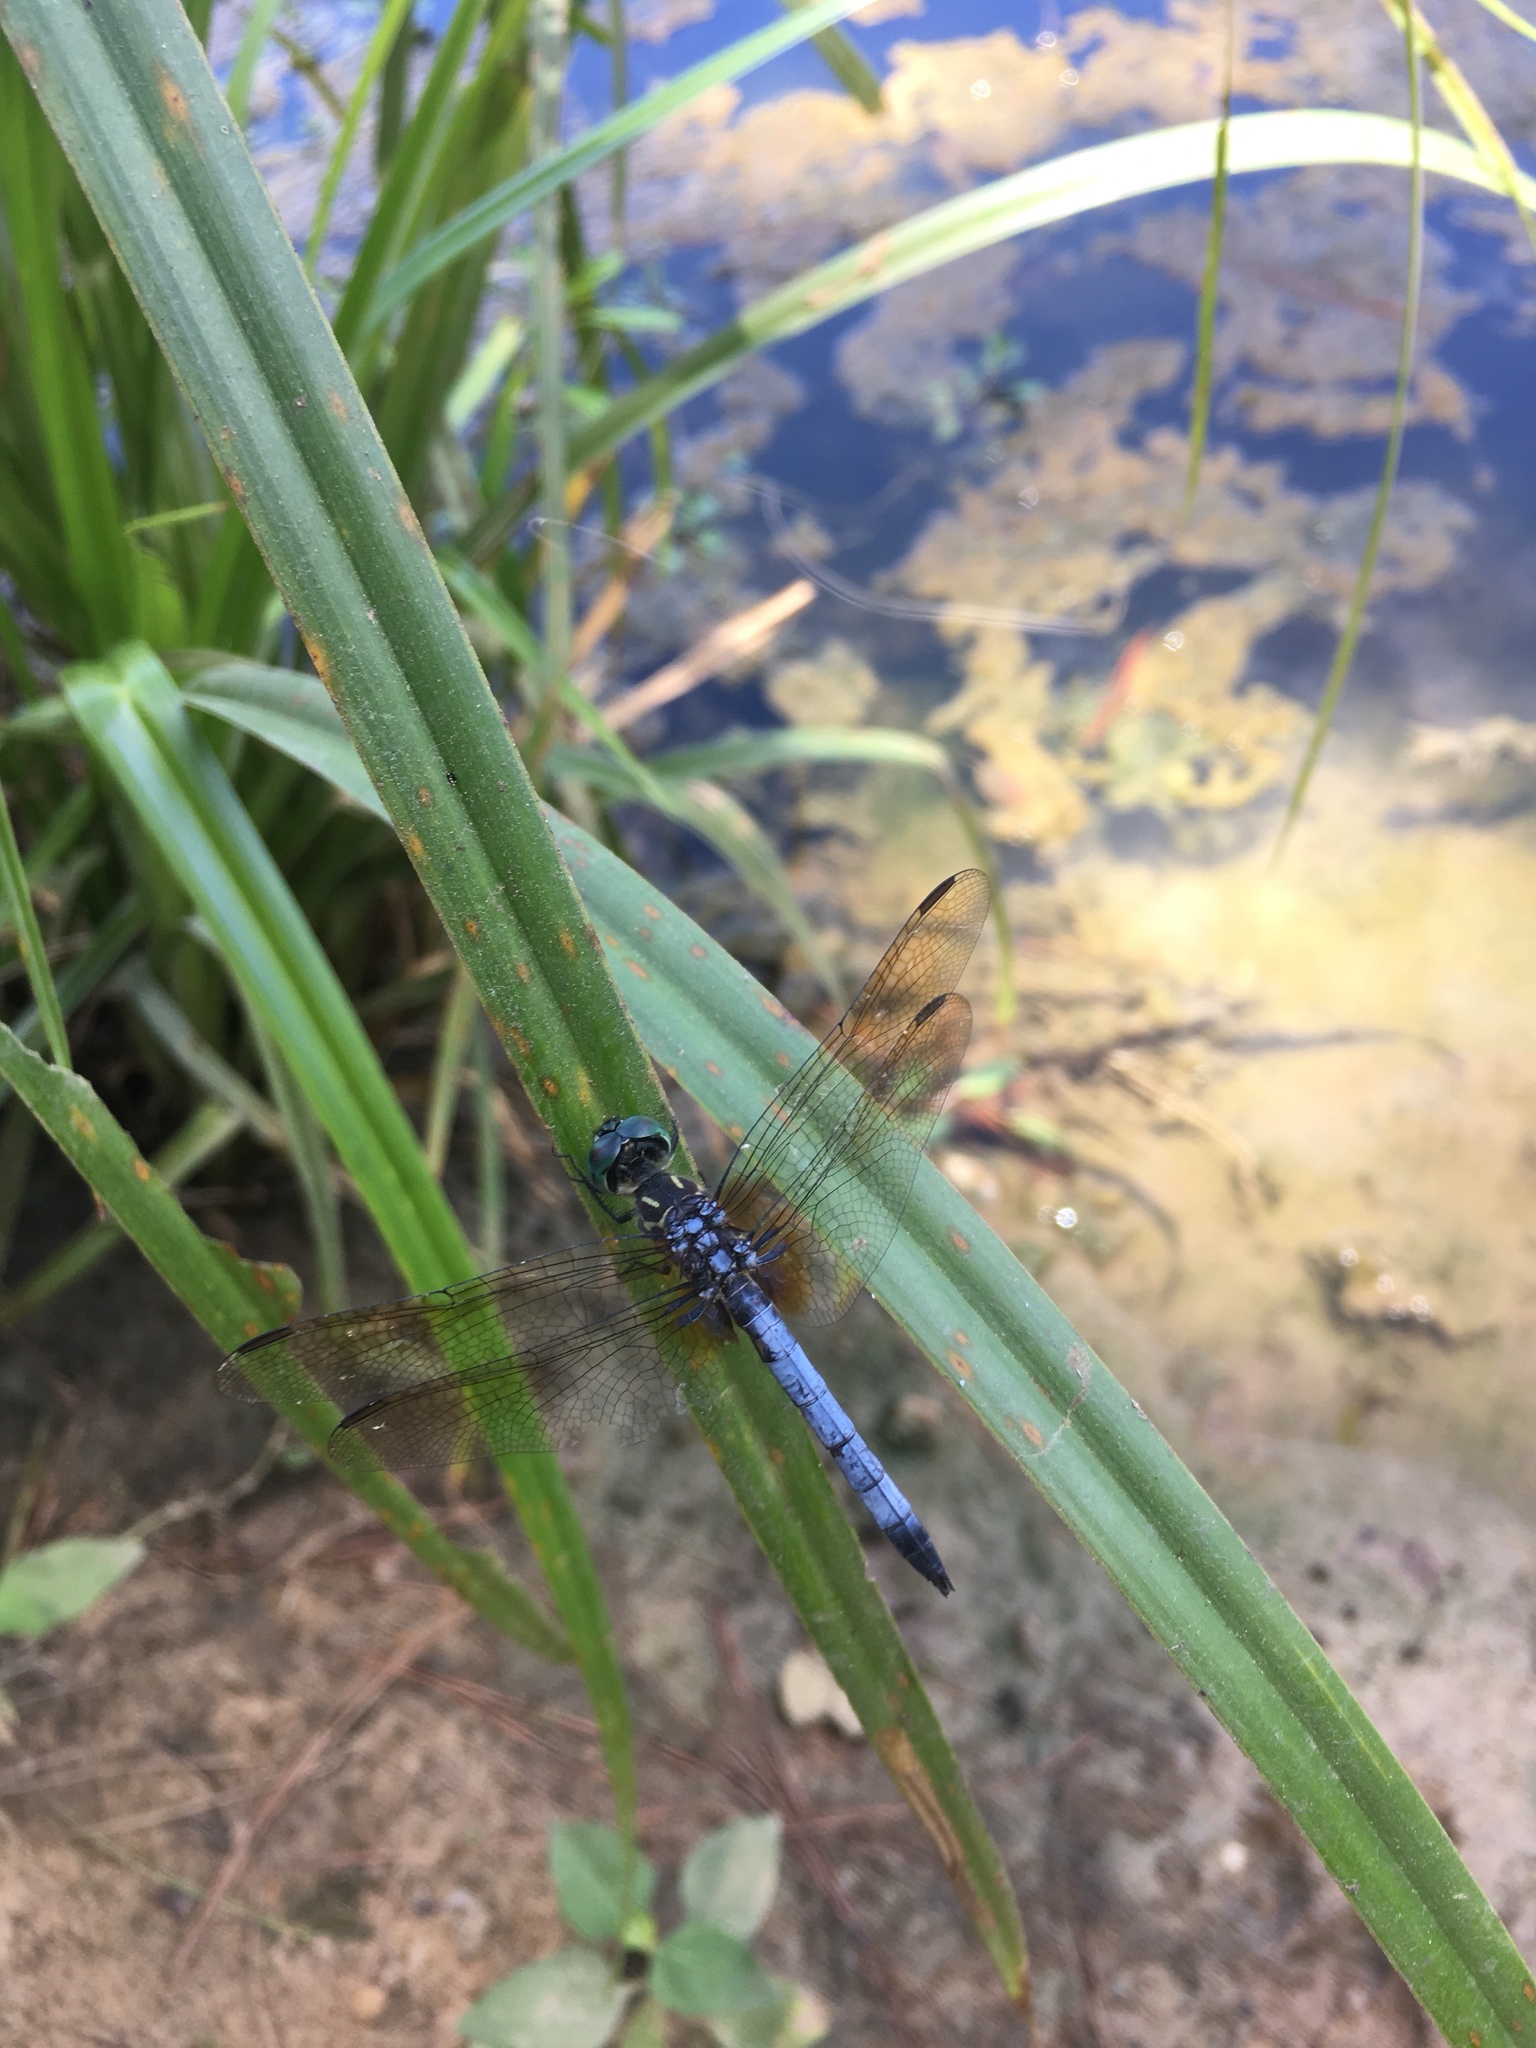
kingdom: Animalia
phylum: Arthropoda
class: Insecta
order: Odonata
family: Libellulidae
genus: Pachydiplax
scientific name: Pachydiplax longipennis
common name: Blue dasher
